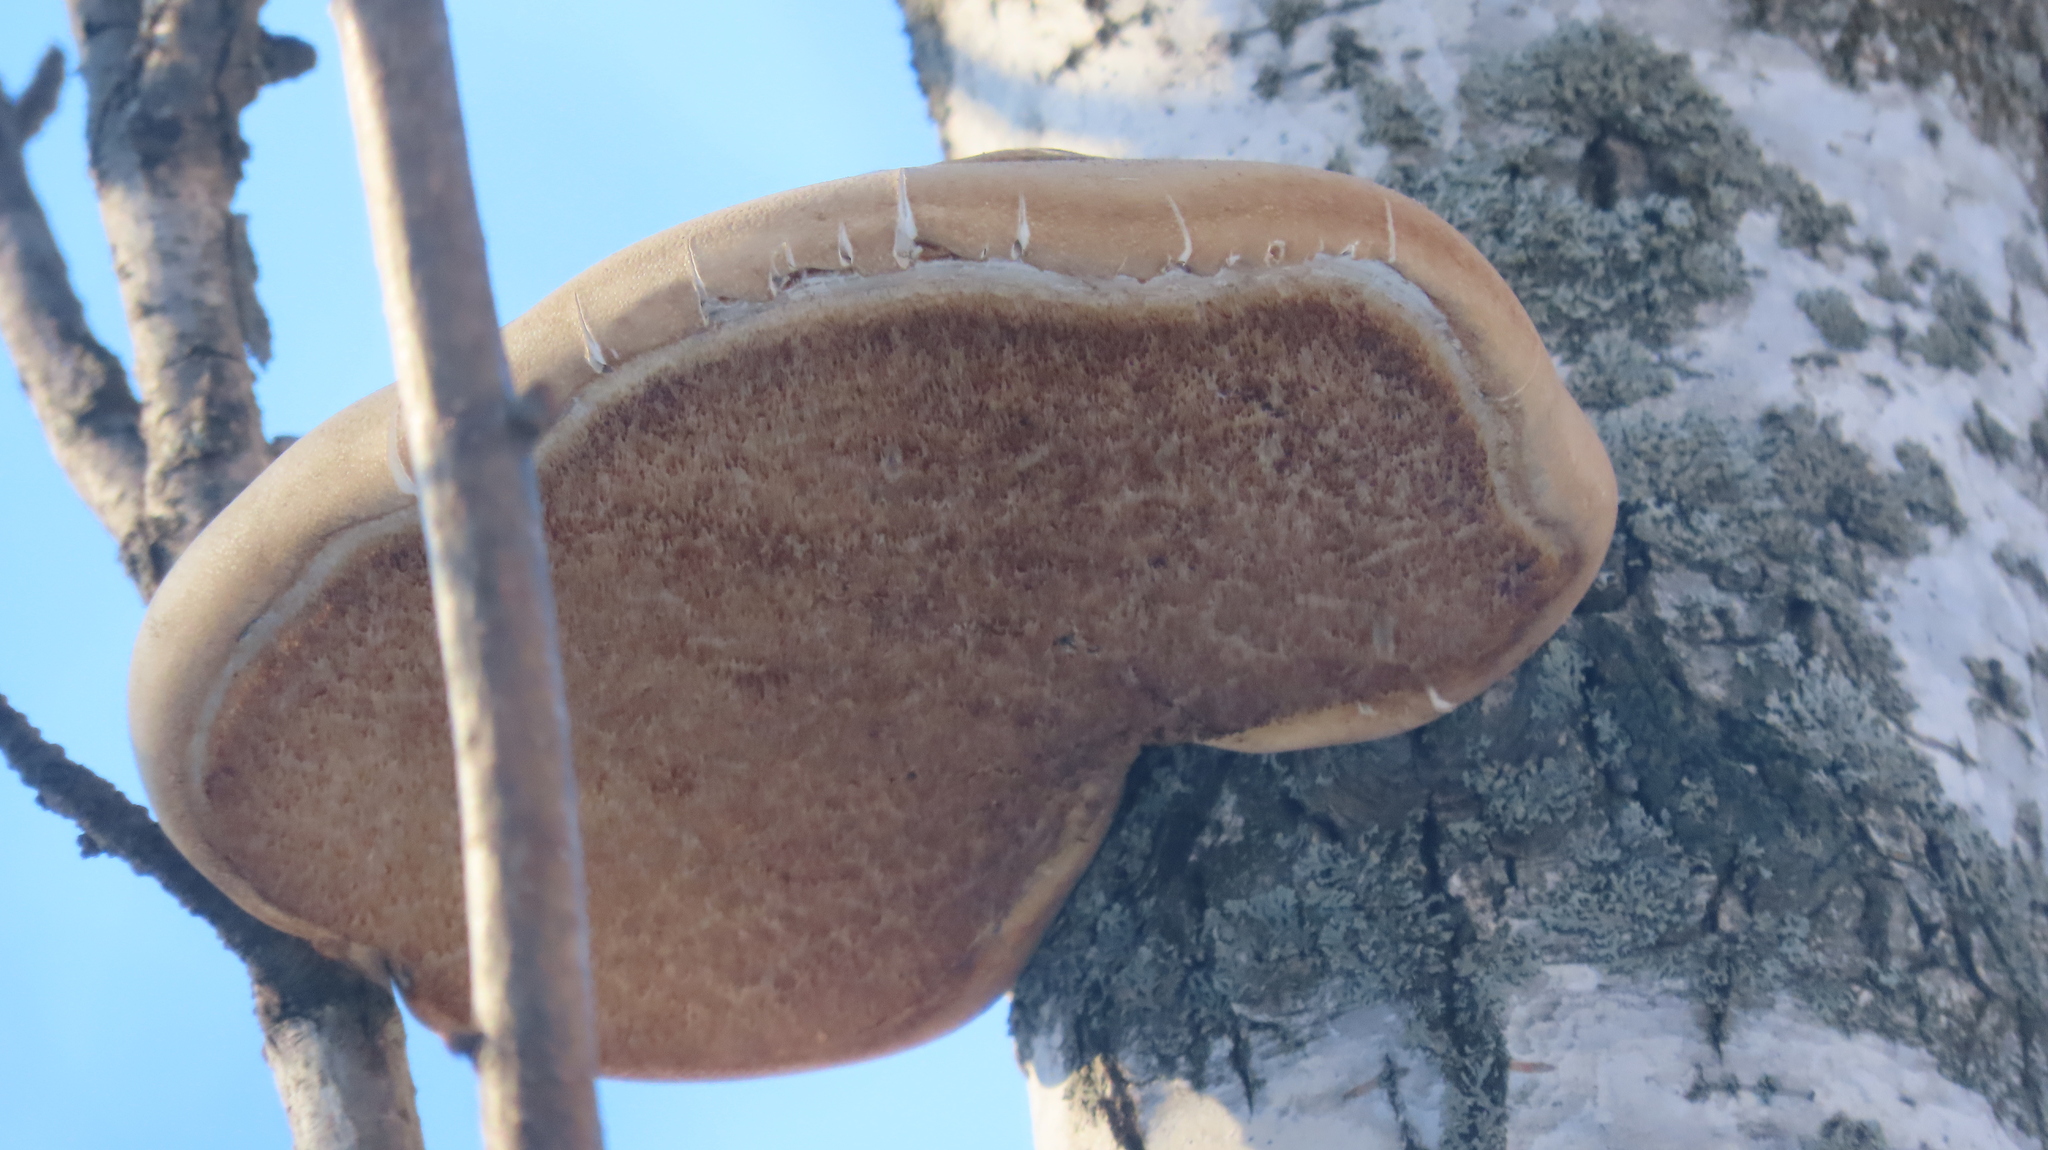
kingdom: Fungi
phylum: Basidiomycota
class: Agaricomycetes
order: Polyporales
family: Fomitopsidaceae
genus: Fomitopsis
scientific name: Fomitopsis betulina
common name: Birch polypore
